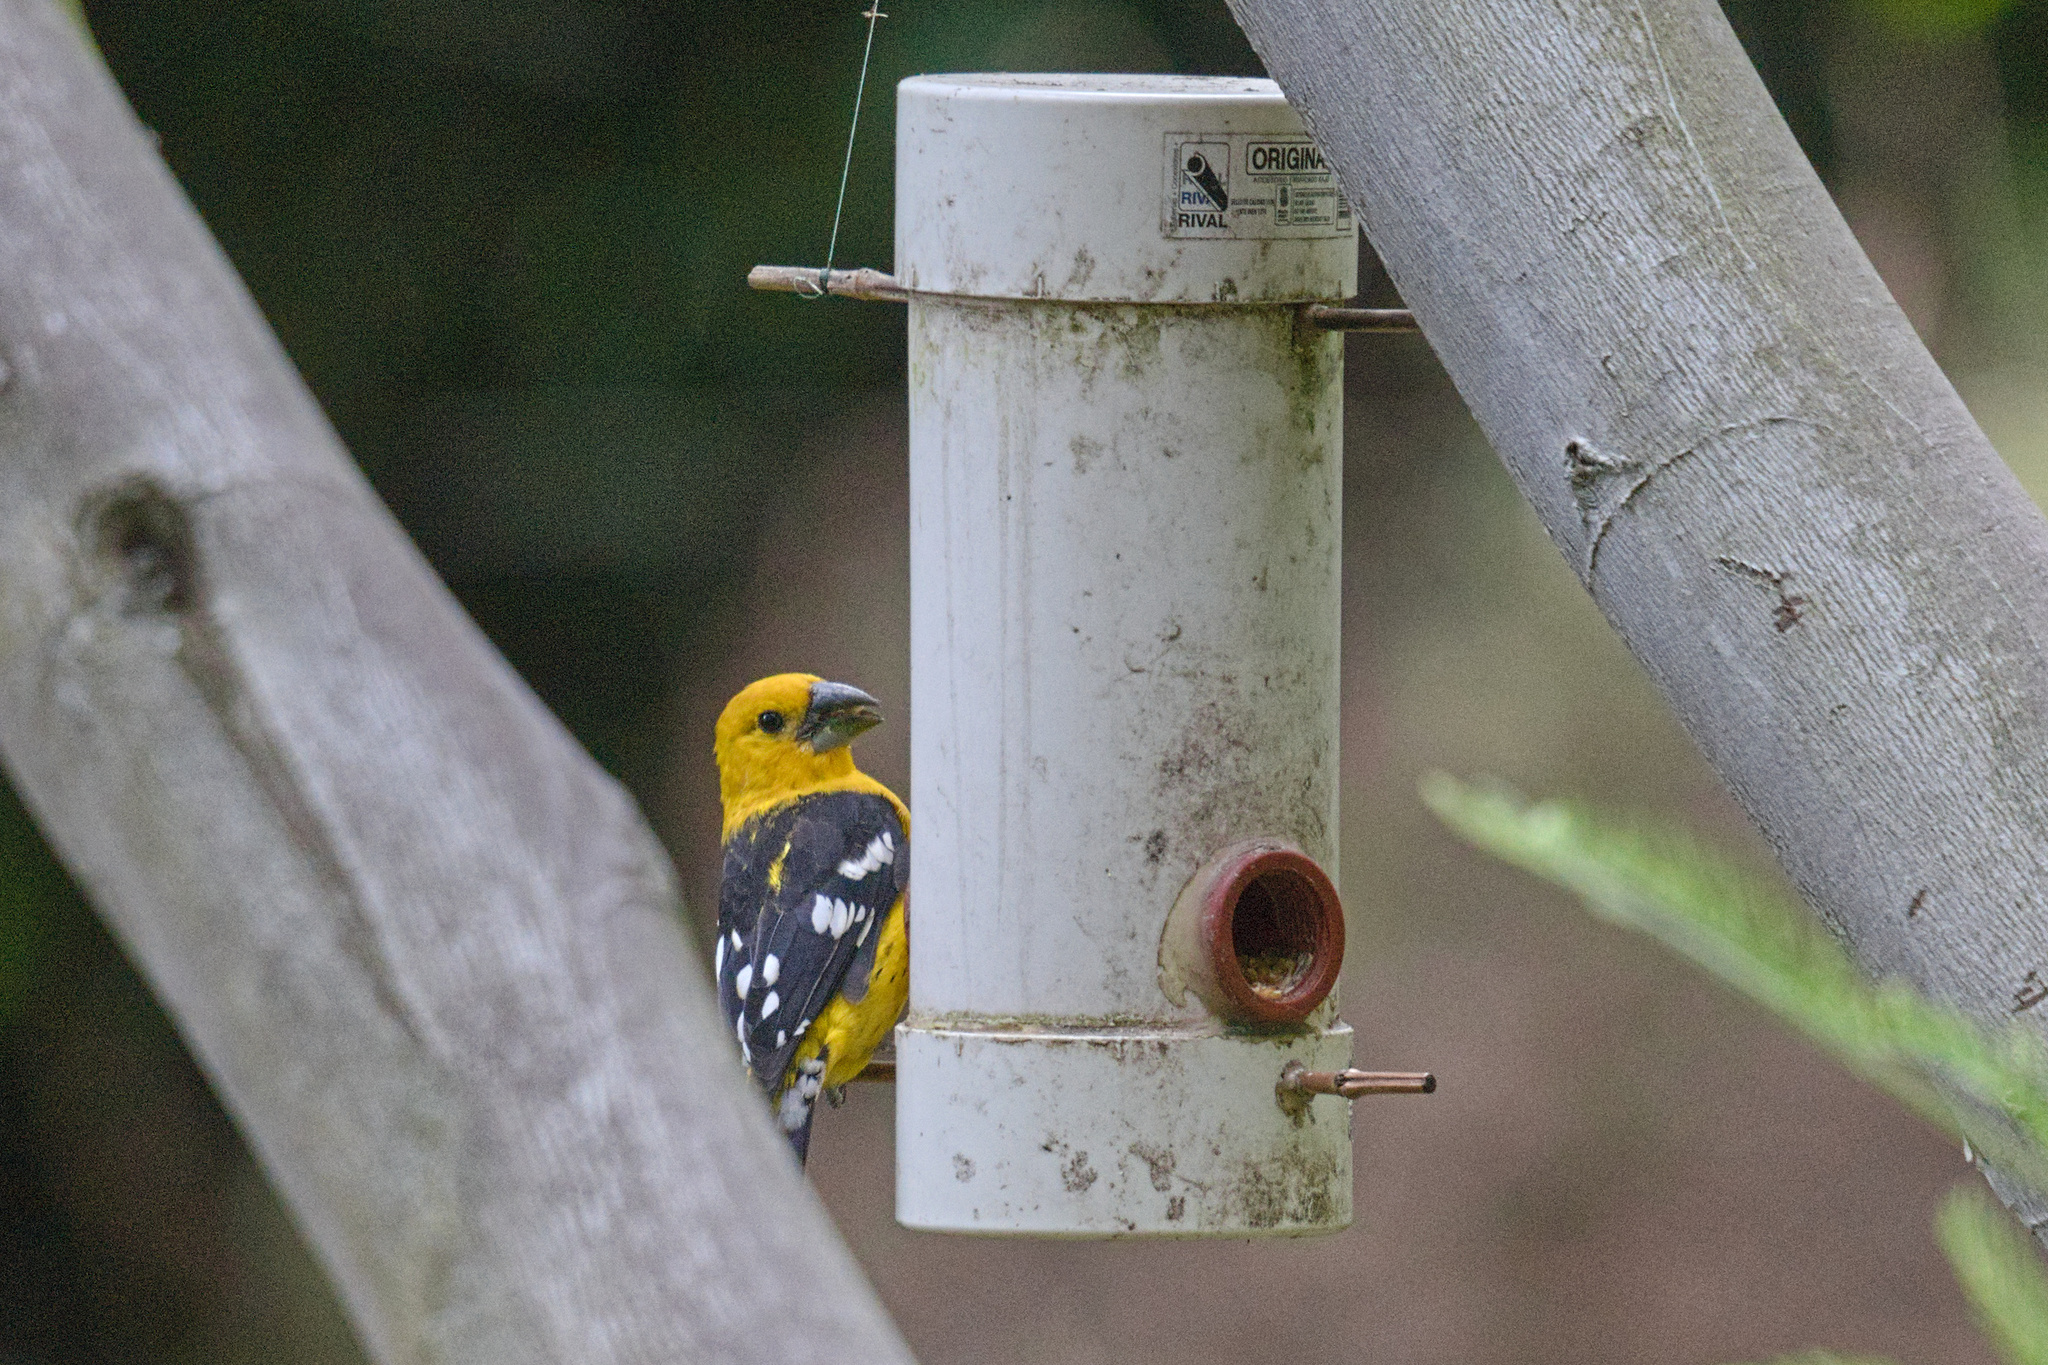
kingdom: Animalia
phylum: Chordata
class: Aves
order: Passeriformes
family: Cardinalidae
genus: Pheucticus
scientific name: Pheucticus chrysogaster
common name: Golden grosbeak
